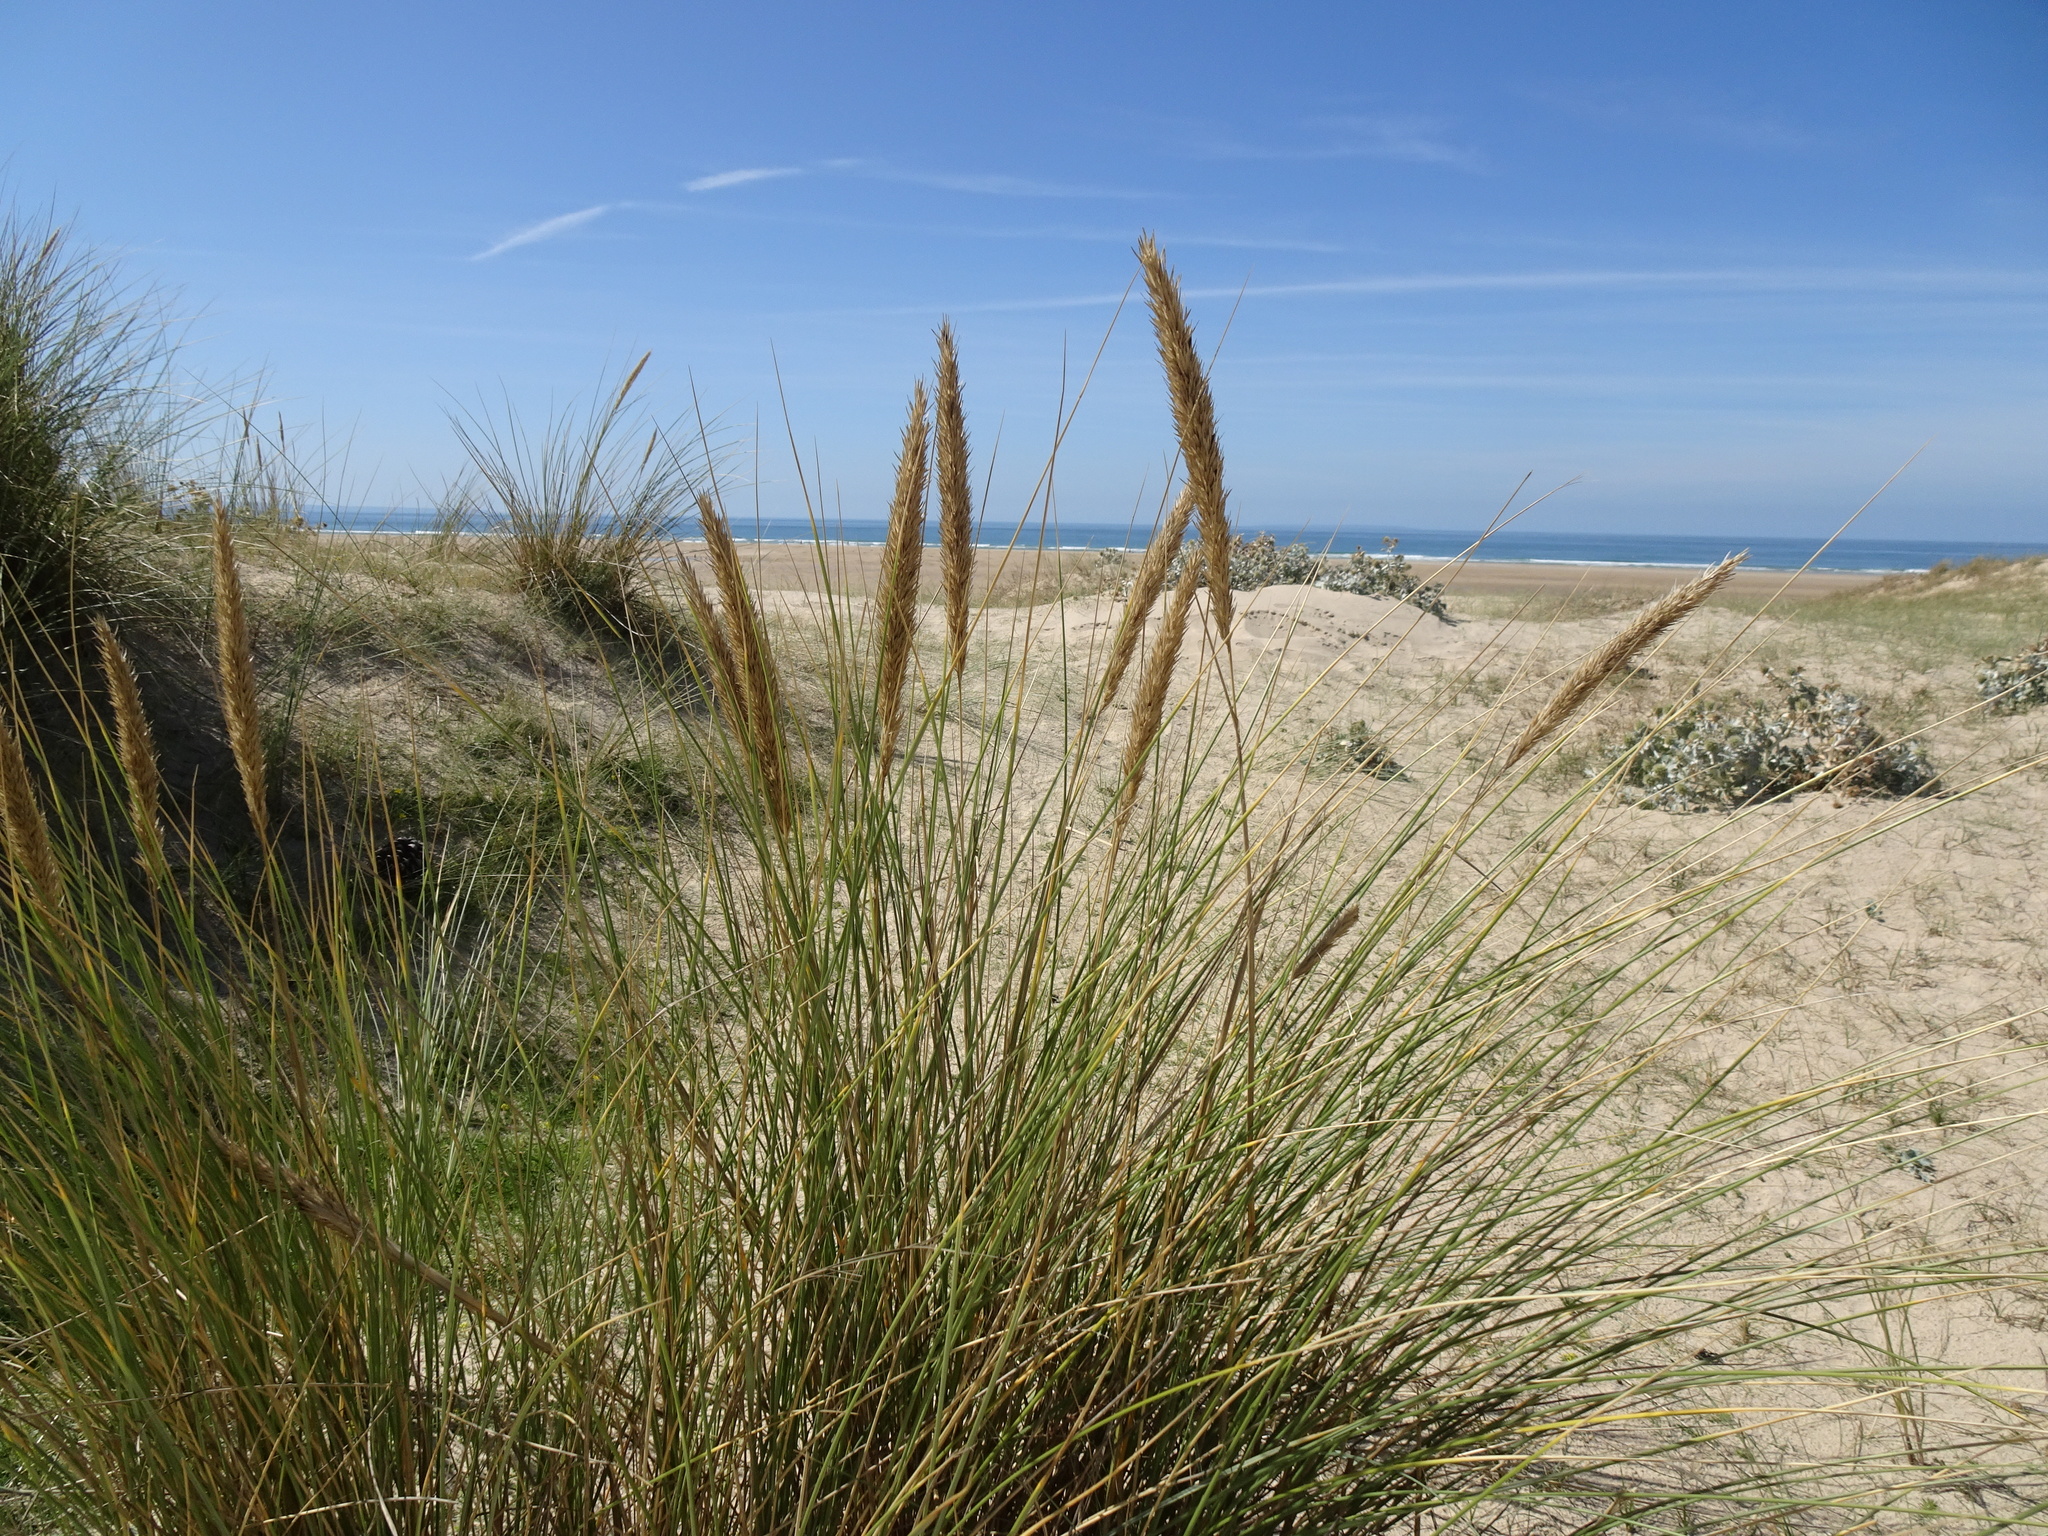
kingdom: Plantae
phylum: Tracheophyta
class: Liliopsida
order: Poales
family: Poaceae
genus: Calamagrostis
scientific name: Calamagrostis arenaria
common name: European beachgrass
